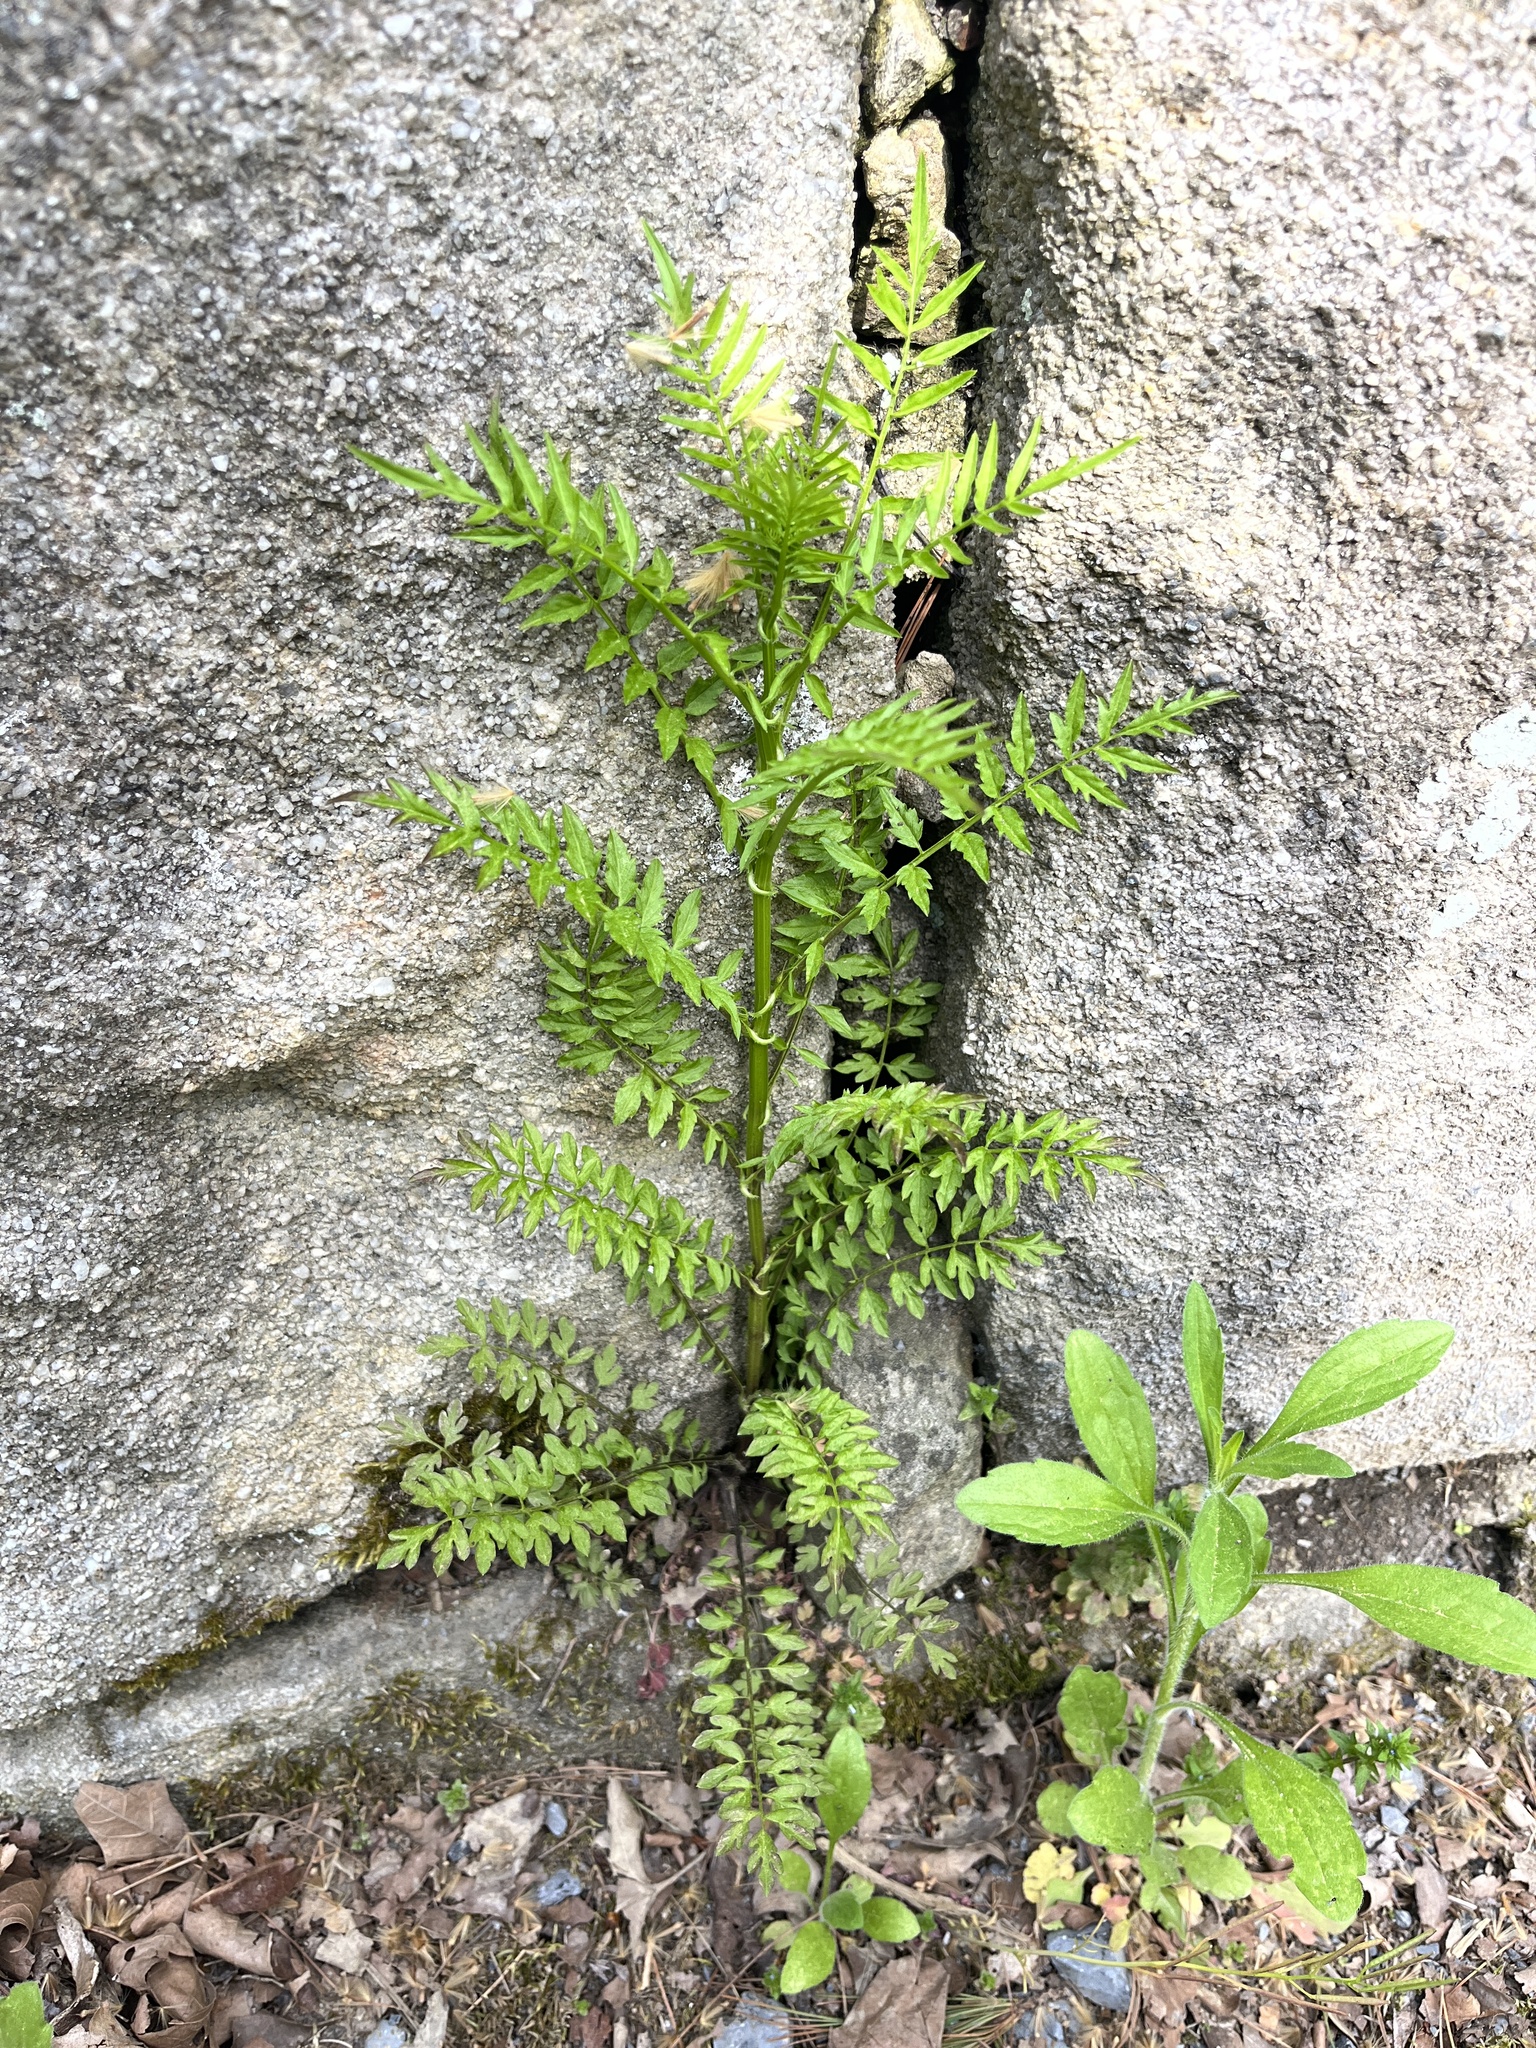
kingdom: Plantae
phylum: Tracheophyta
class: Magnoliopsida
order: Brassicales
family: Brassicaceae
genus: Cardamine
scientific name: Cardamine impatiens
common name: Narrow-leaved bitter-cress
